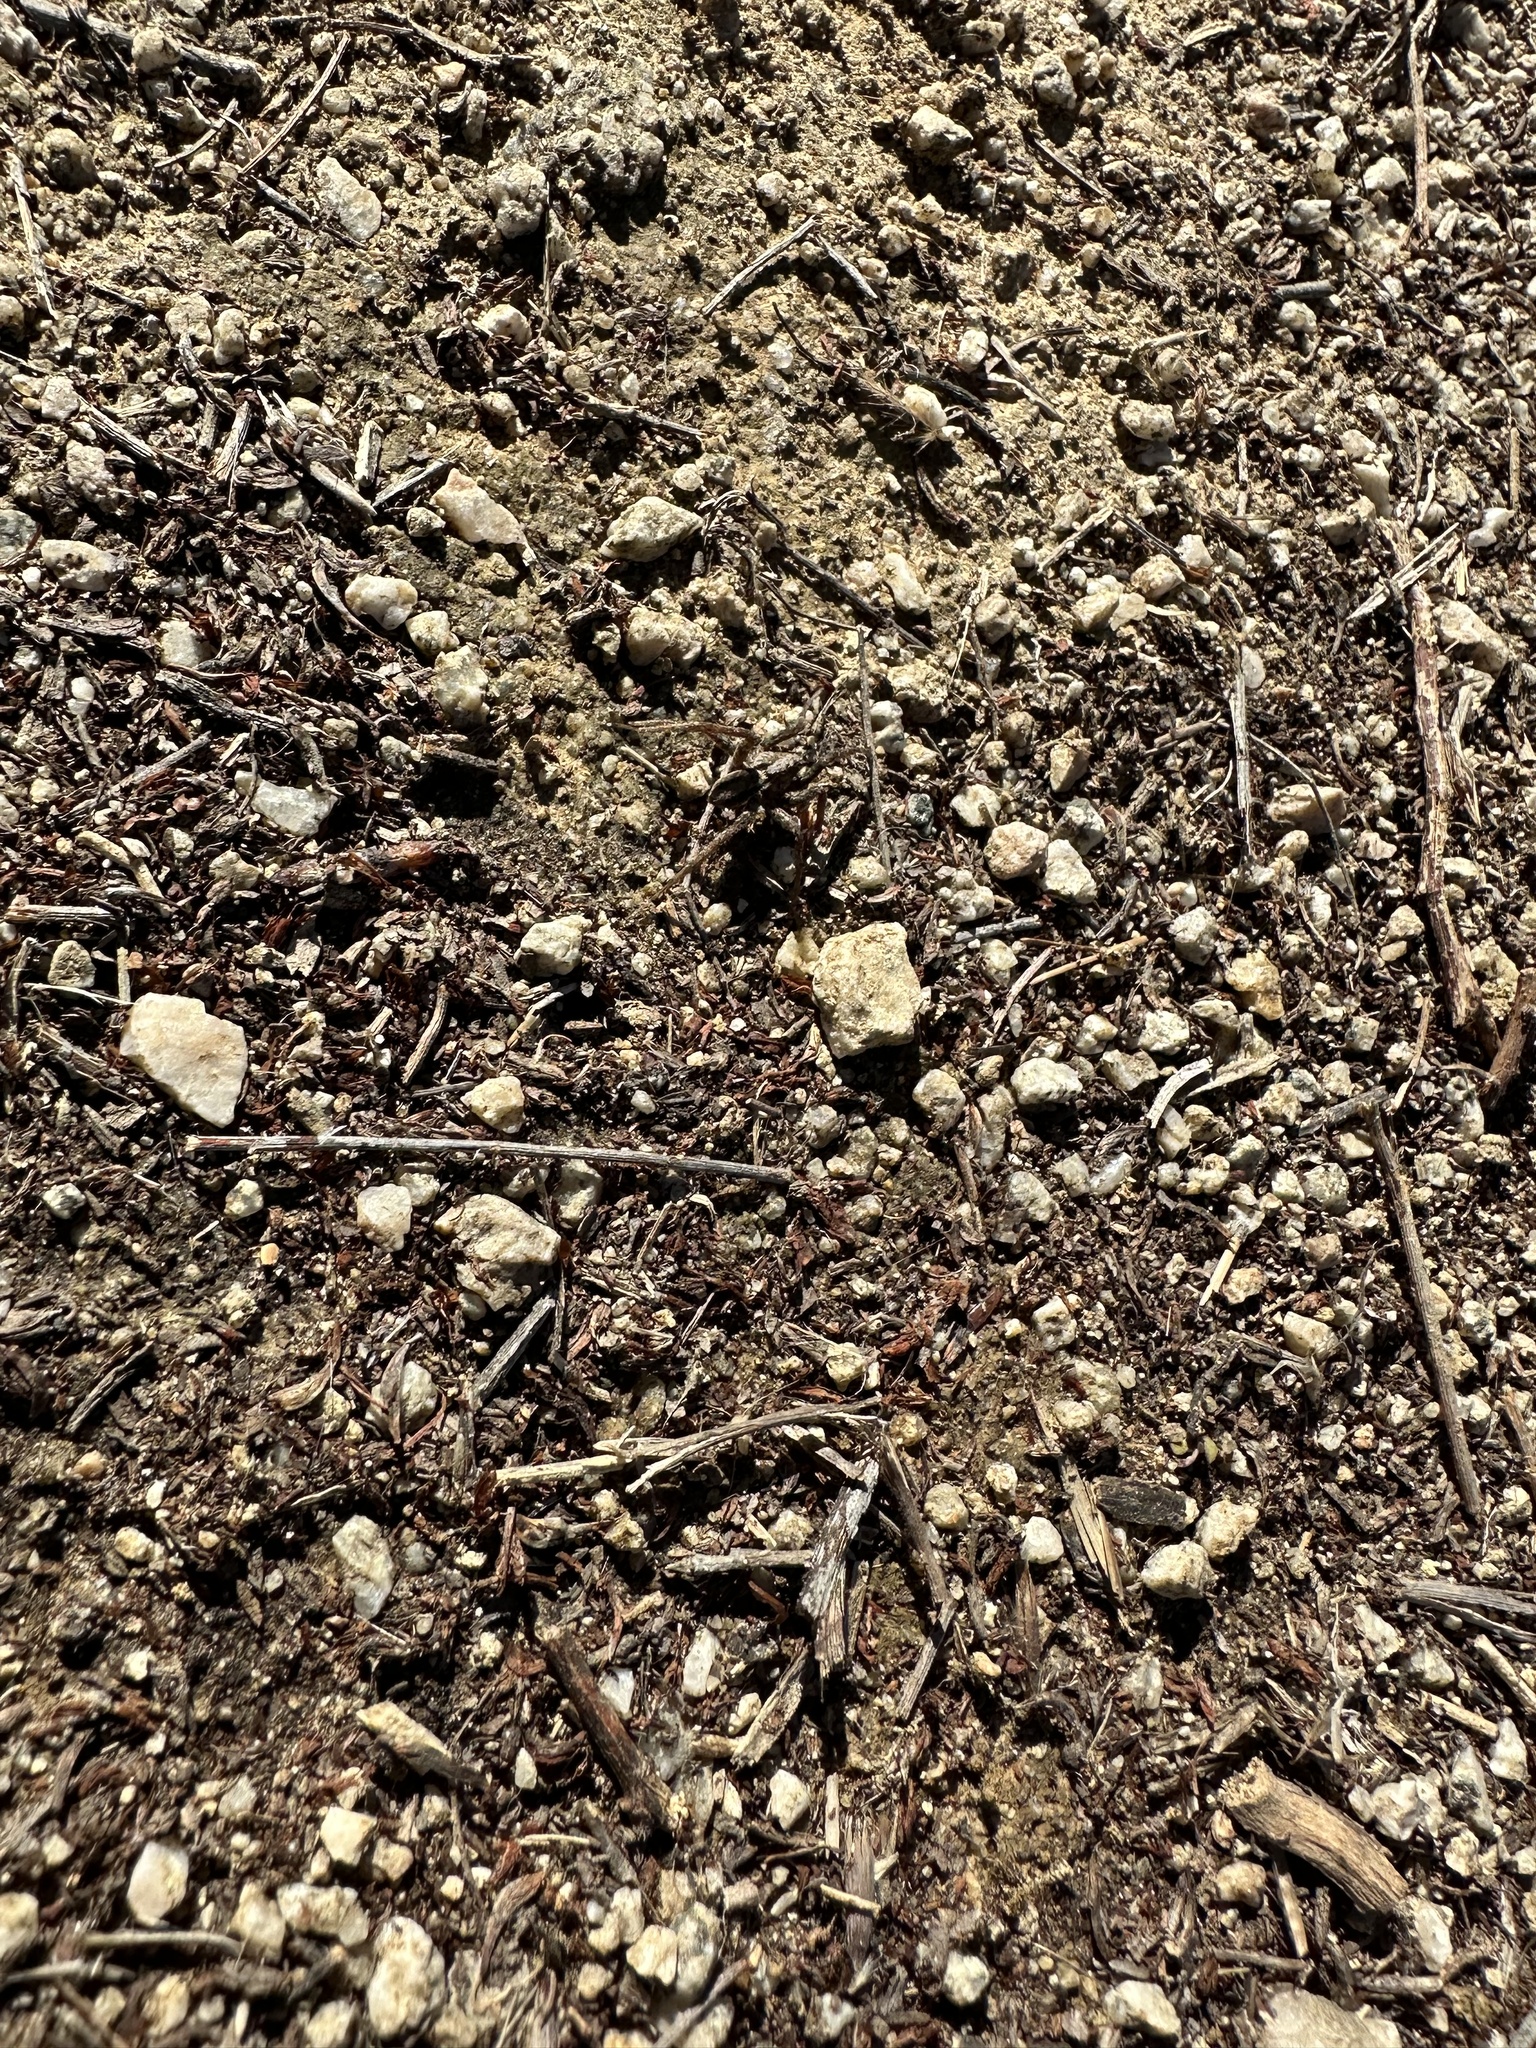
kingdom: Animalia
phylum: Arthropoda
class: Arachnida
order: Araneae
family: Lycosidae
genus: Alopecosa
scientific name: Alopecosa kochi
